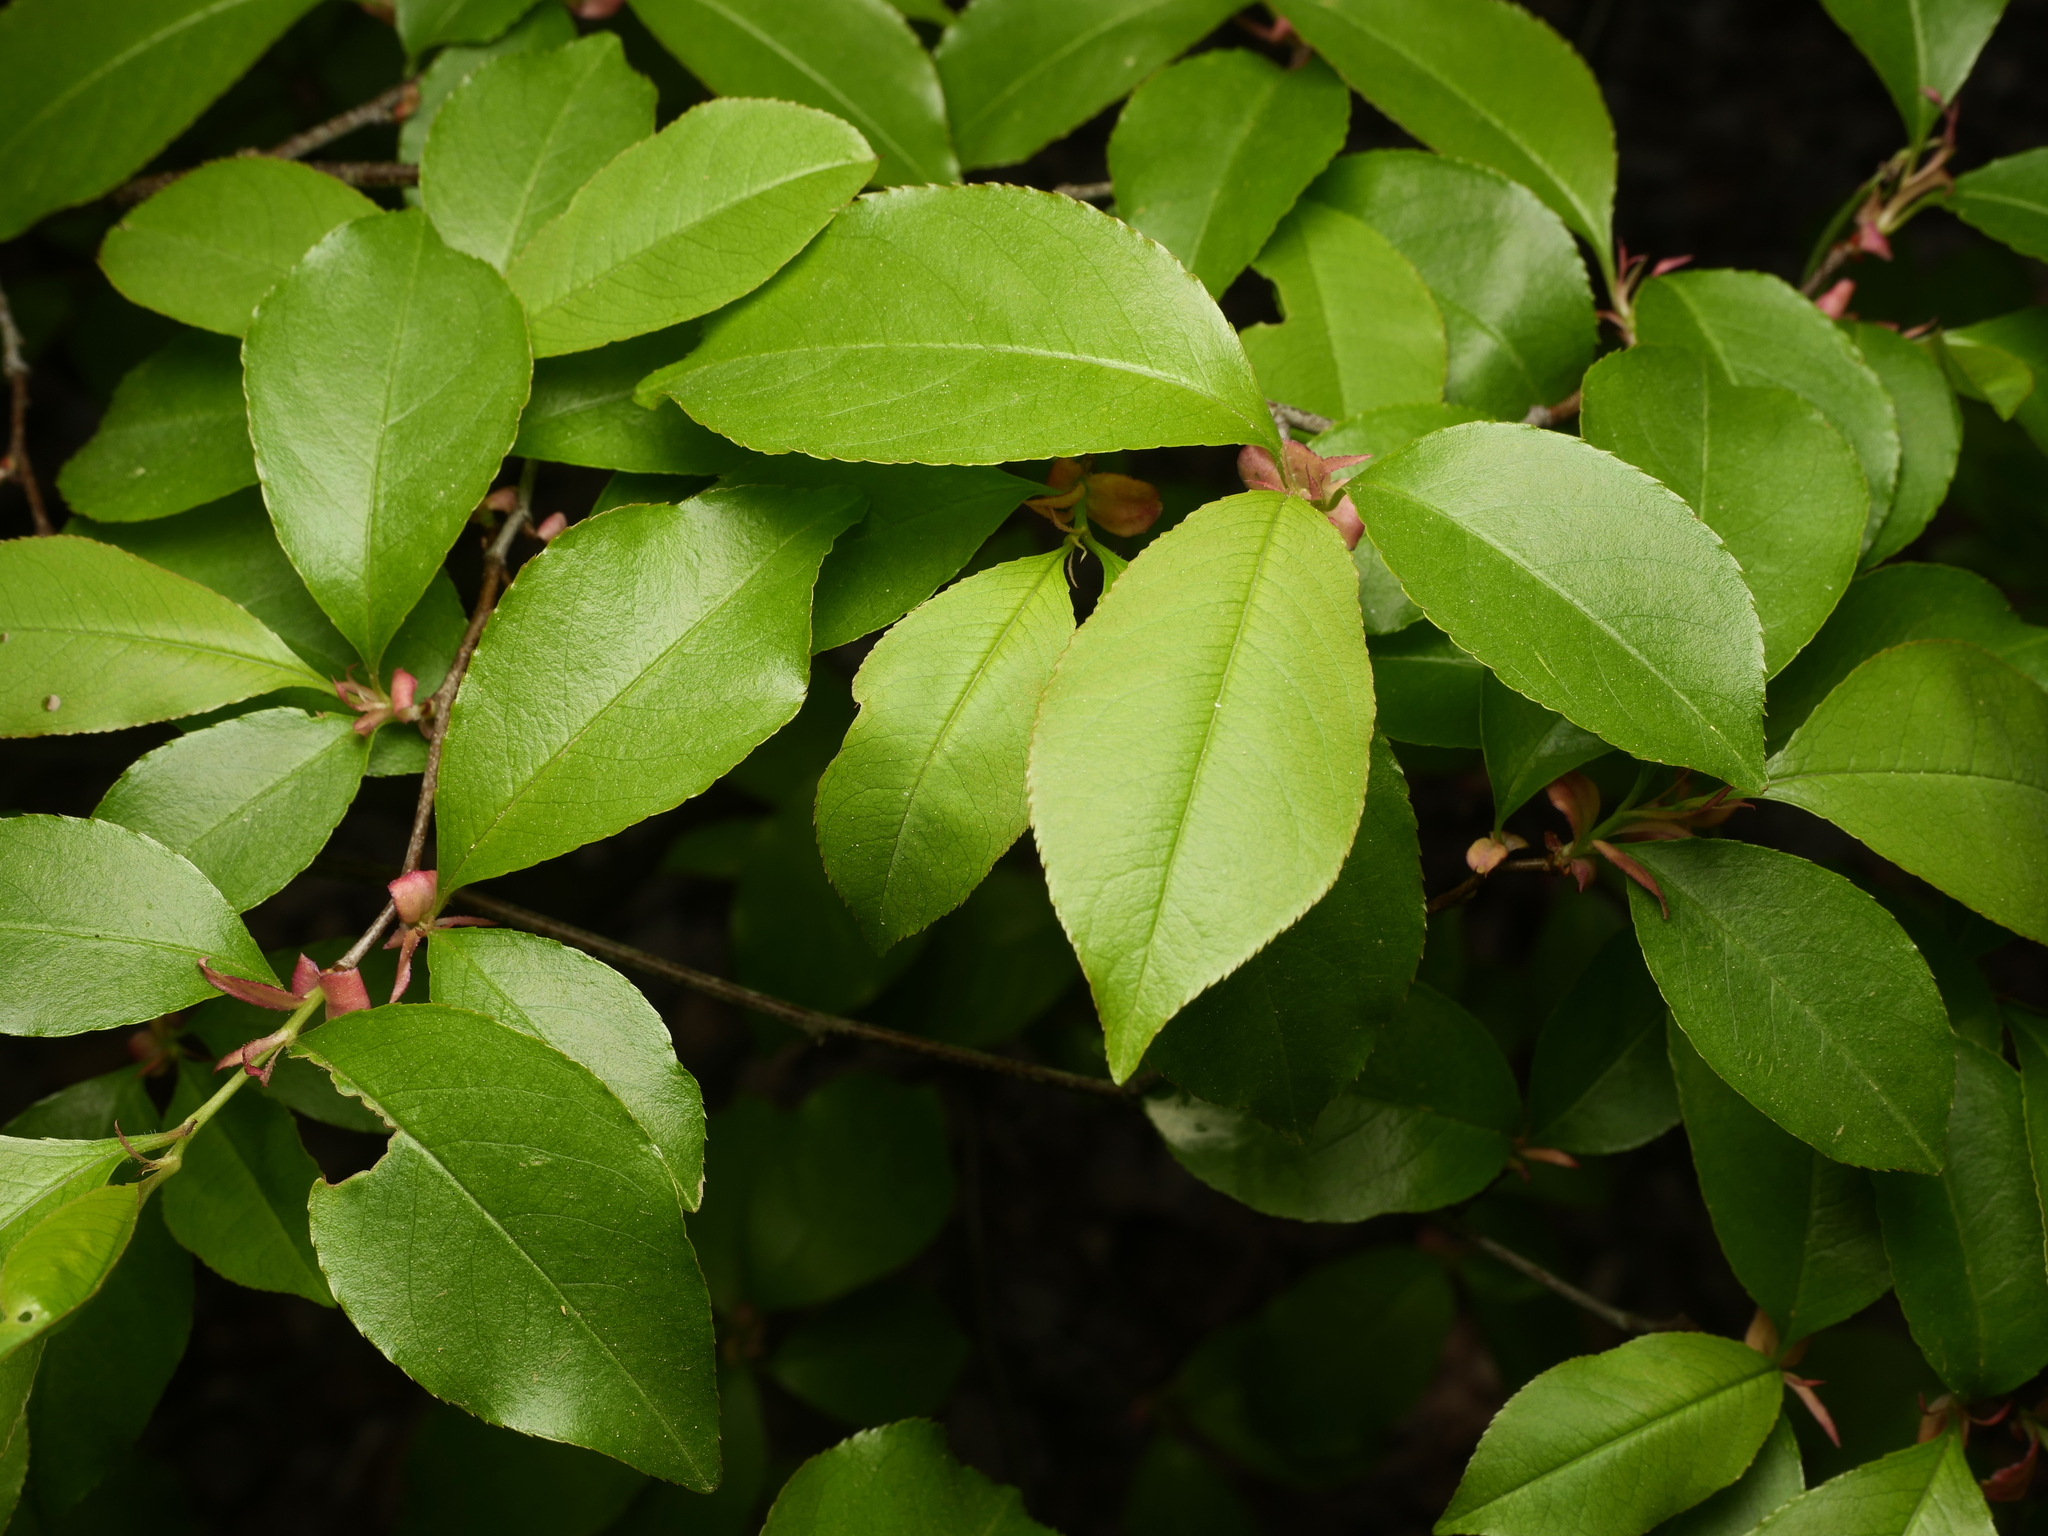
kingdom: Plantae
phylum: Tracheophyta
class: Magnoliopsida
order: Rosales
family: Rosaceae
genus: Prunus
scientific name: Prunus serotina
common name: Black cherry
